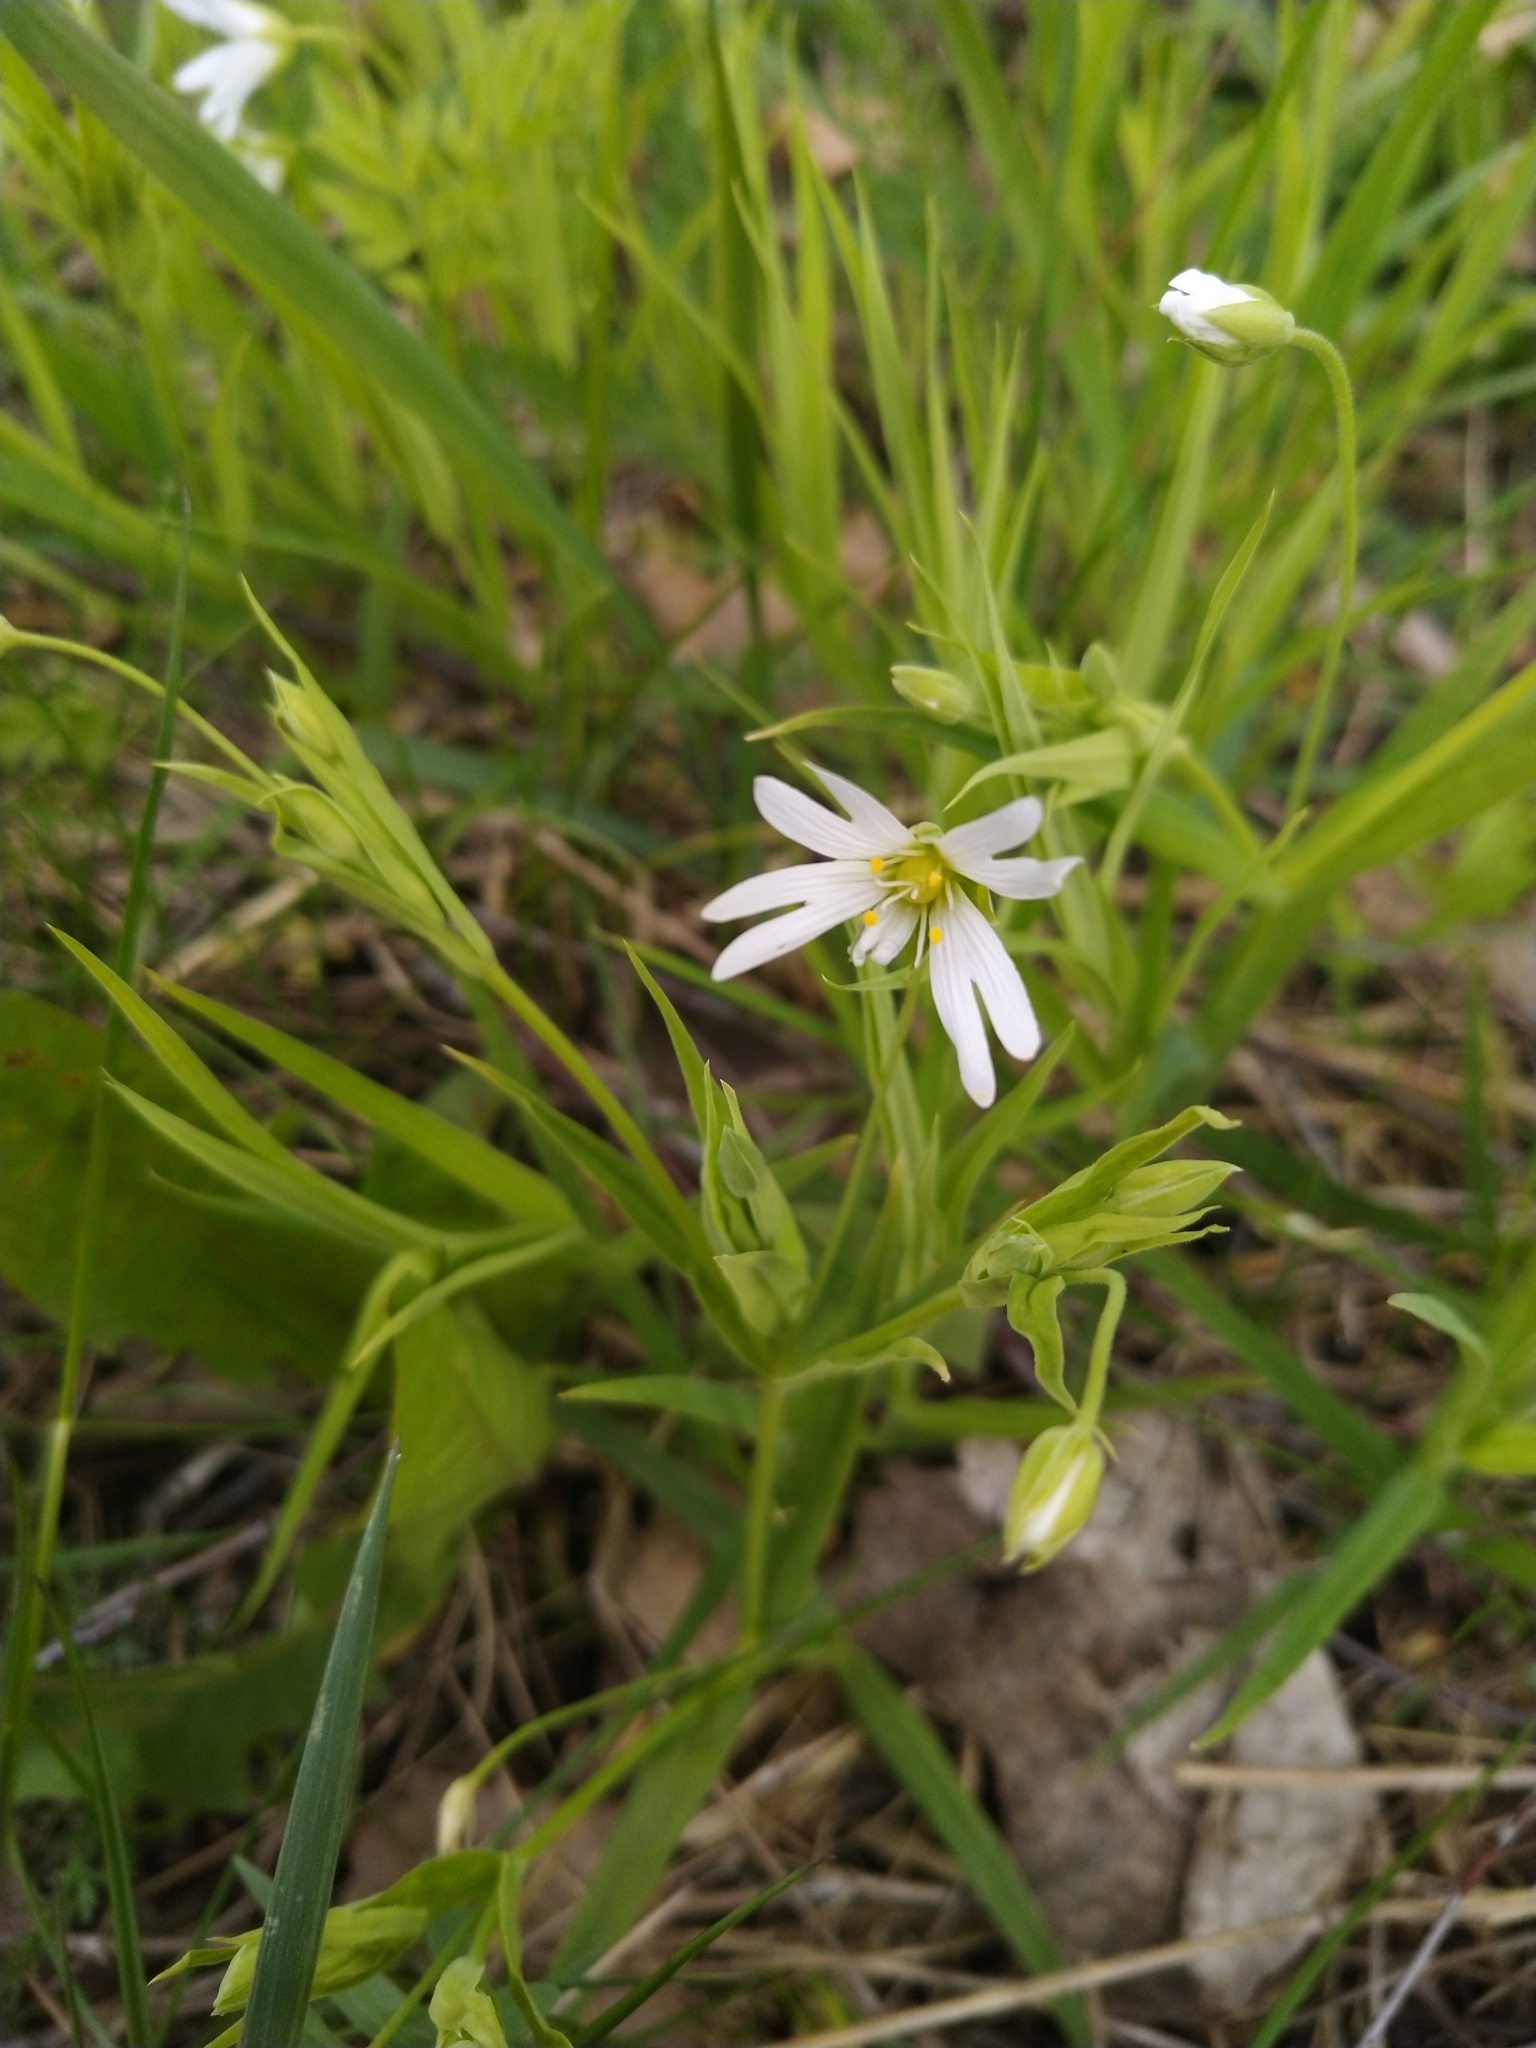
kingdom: Plantae
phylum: Tracheophyta
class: Magnoliopsida
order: Caryophyllales
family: Caryophyllaceae
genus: Rabelera
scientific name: Rabelera holostea
